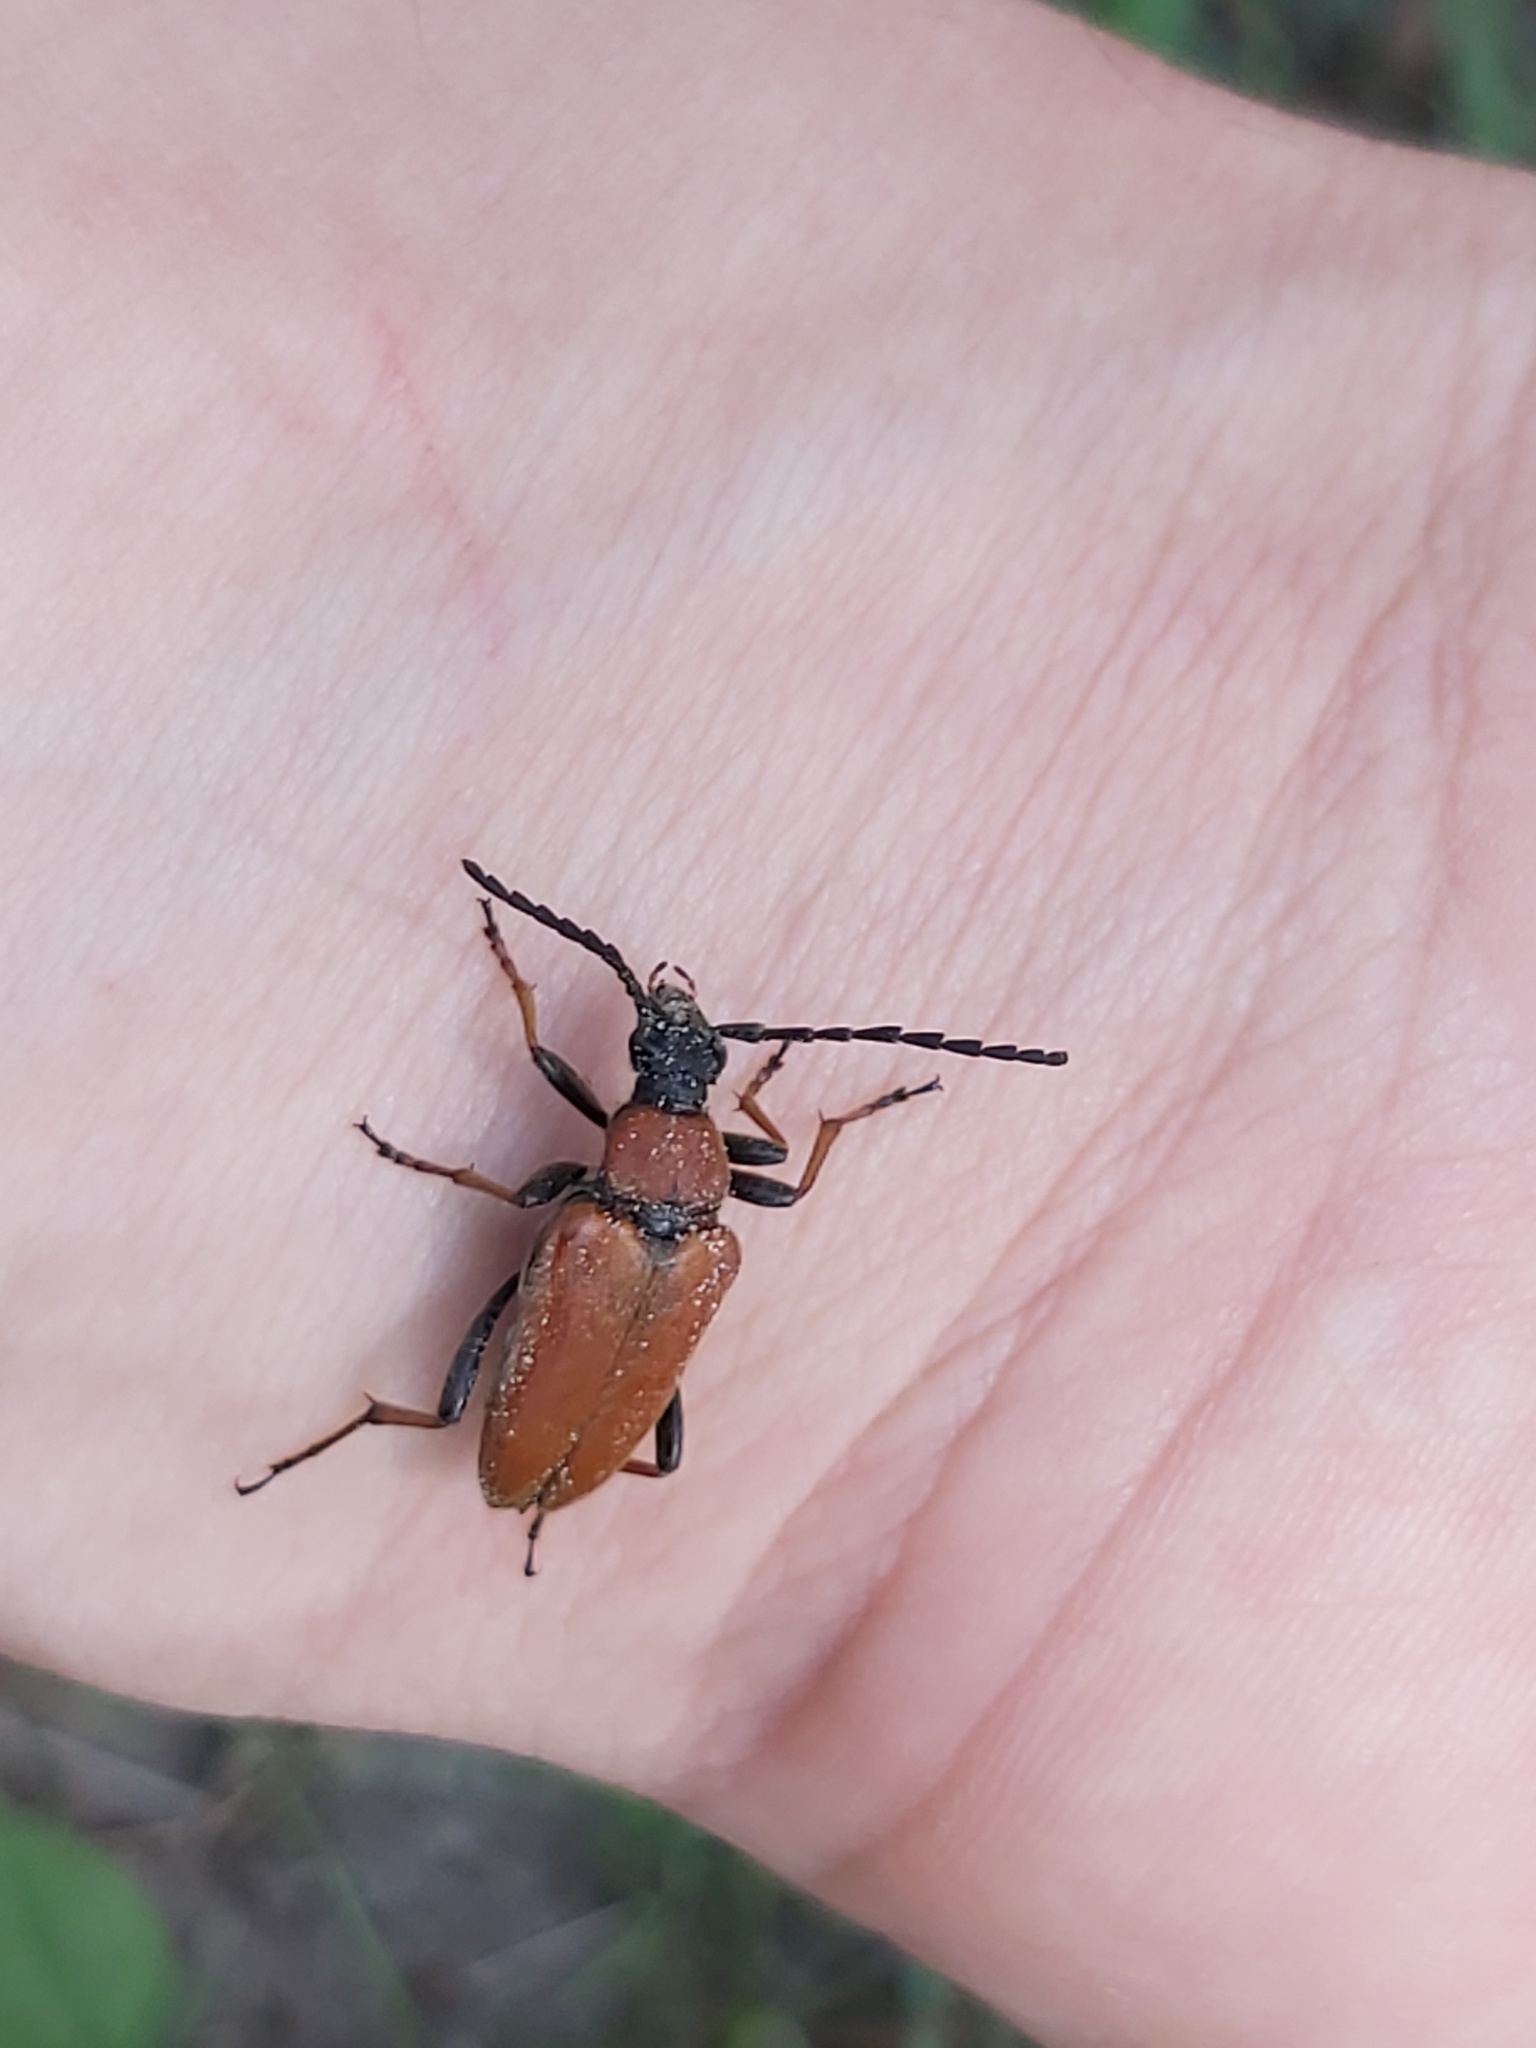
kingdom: Animalia
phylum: Arthropoda
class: Insecta
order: Coleoptera
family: Cerambycidae
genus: Stictoleptura
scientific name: Stictoleptura rubra
